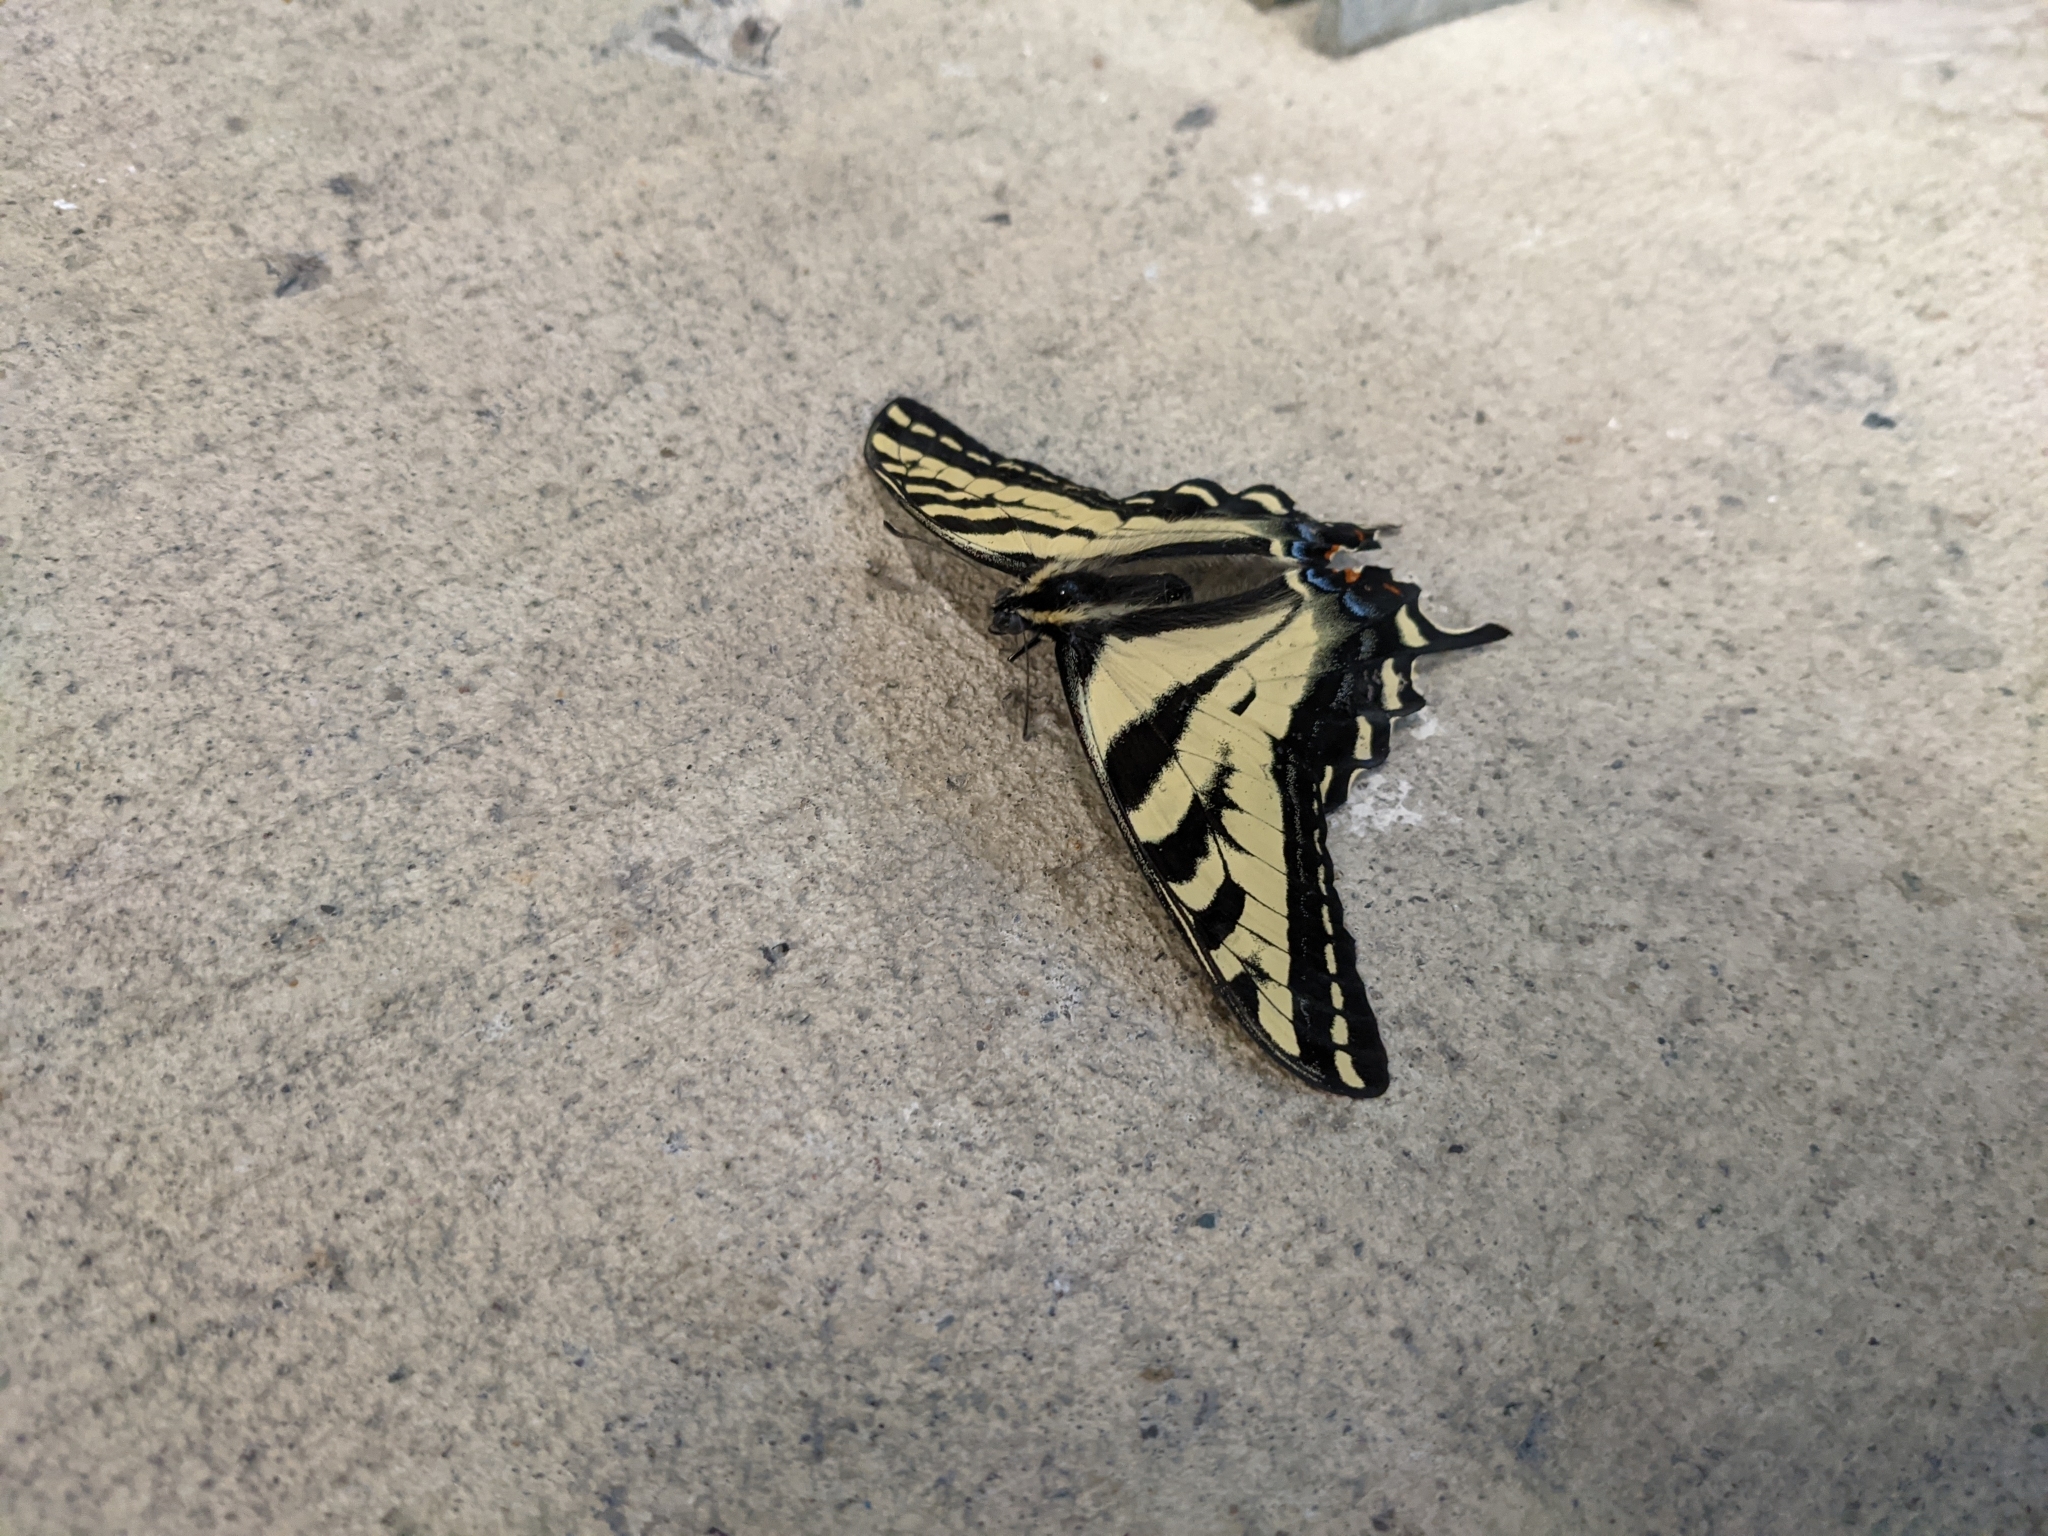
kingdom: Animalia
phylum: Arthropoda
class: Insecta
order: Lepidoptera
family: Papilionidae
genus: Papilio
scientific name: Papilio rutulus
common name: Western tiger swallowtail
